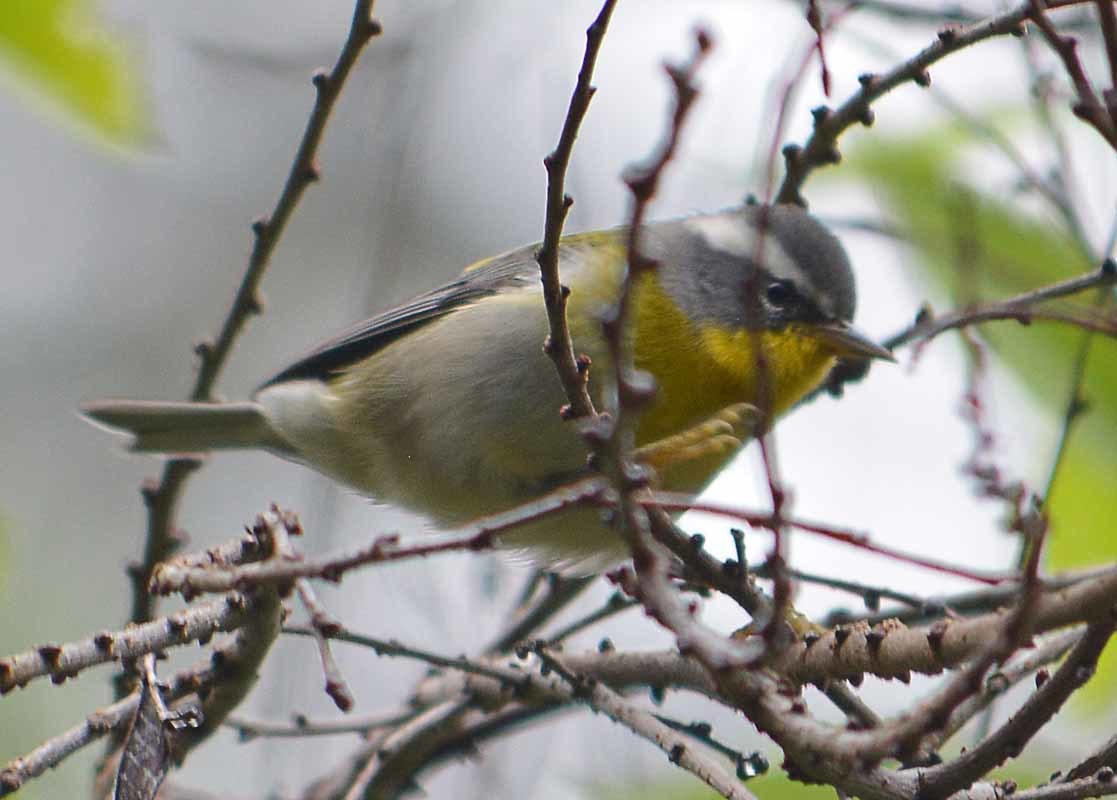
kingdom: Animalia
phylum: Chordata
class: Aves
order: Passeriformes
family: Parulidae
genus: Oreothlypis
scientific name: Oreothlypis superciliosa
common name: Crescent-chested warbler
